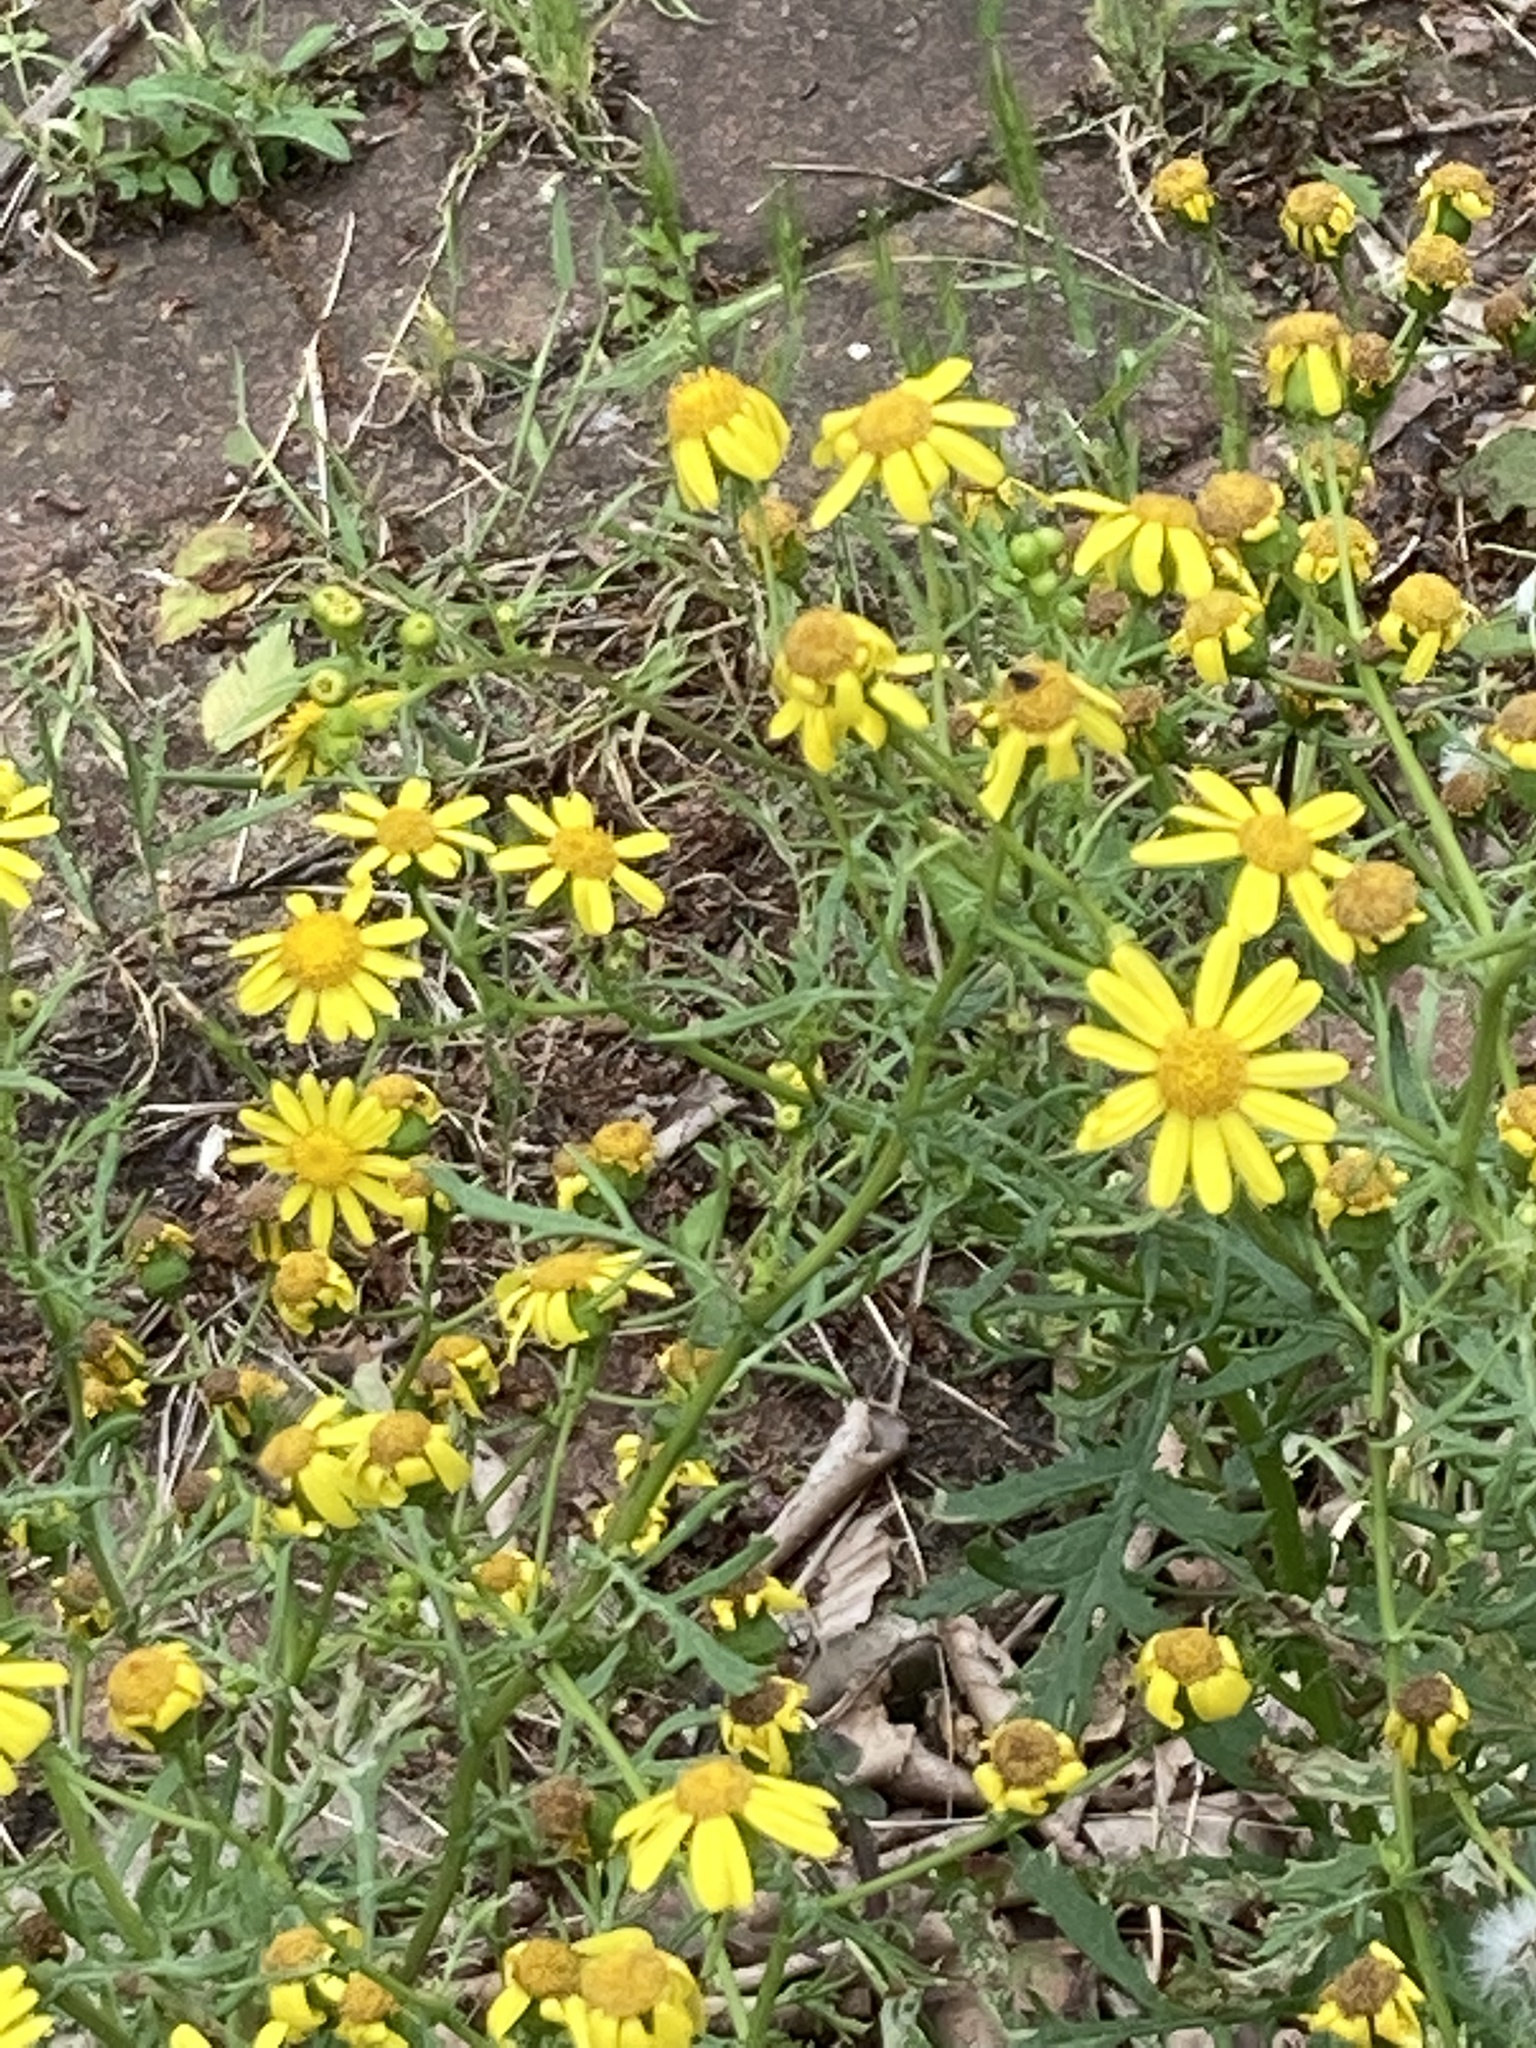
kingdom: Plantae
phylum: Tracheophyta
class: Magnoliopsida
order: Asterales
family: Asteraceae
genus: Senecio
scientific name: Senecio squalidus
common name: Oxford ragwort
